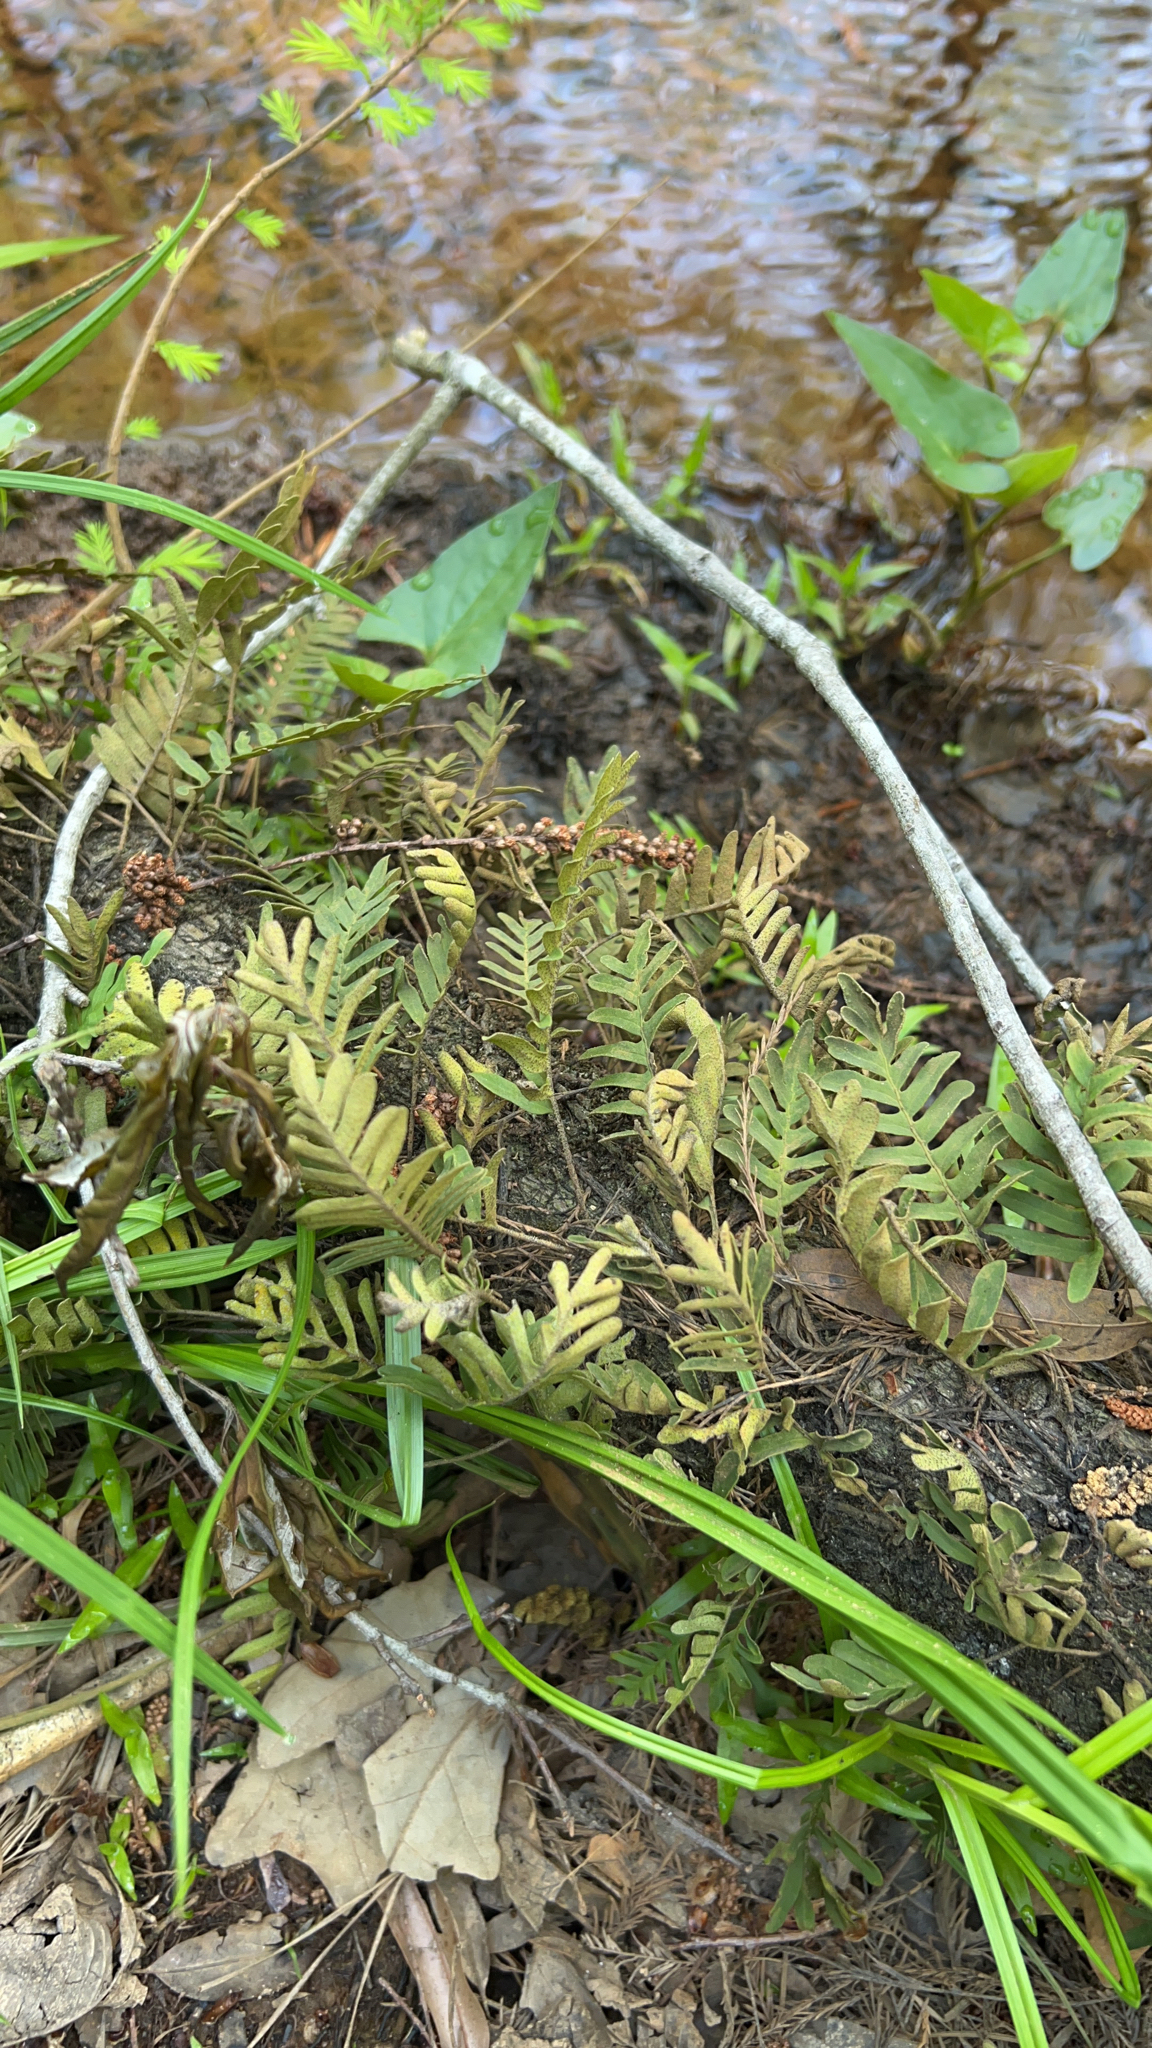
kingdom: Plantae
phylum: Tracheophyta
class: Polypodiopsida
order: Polypodiales
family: Polypodiaceae
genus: Pleopeltis
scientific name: Pleopeltis michauxiana
